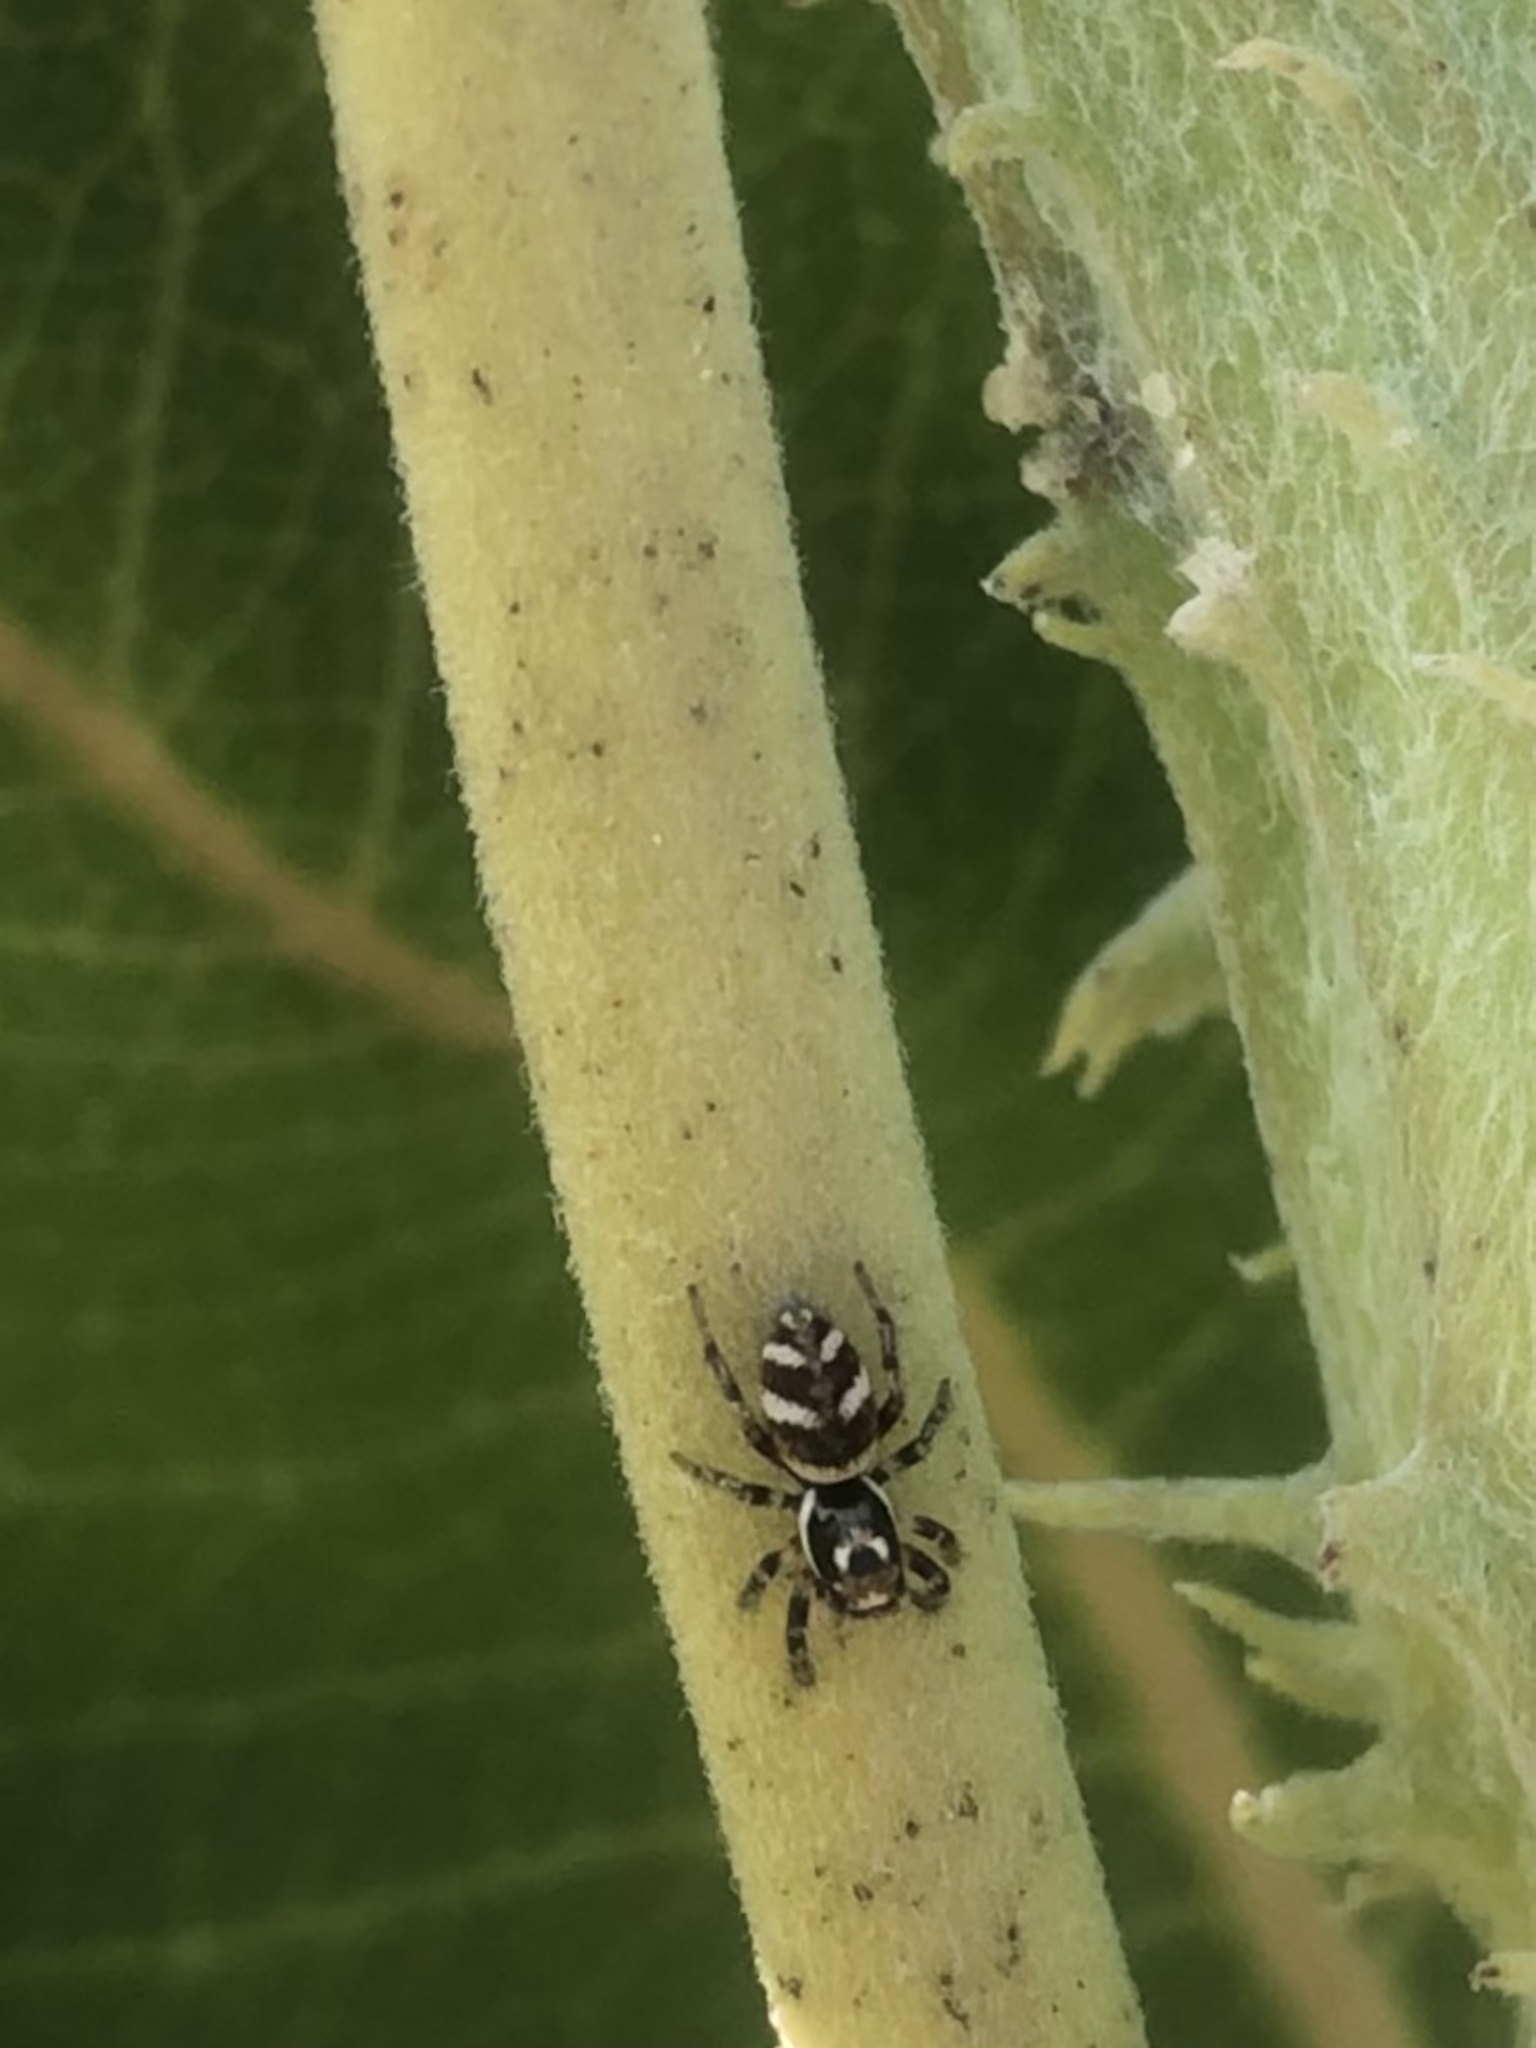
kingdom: Animalia
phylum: Arthropoda
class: Arachnida
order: Araneae
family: Salticidae
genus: Salticus
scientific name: Salticus scenicus
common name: Zebra jumper
